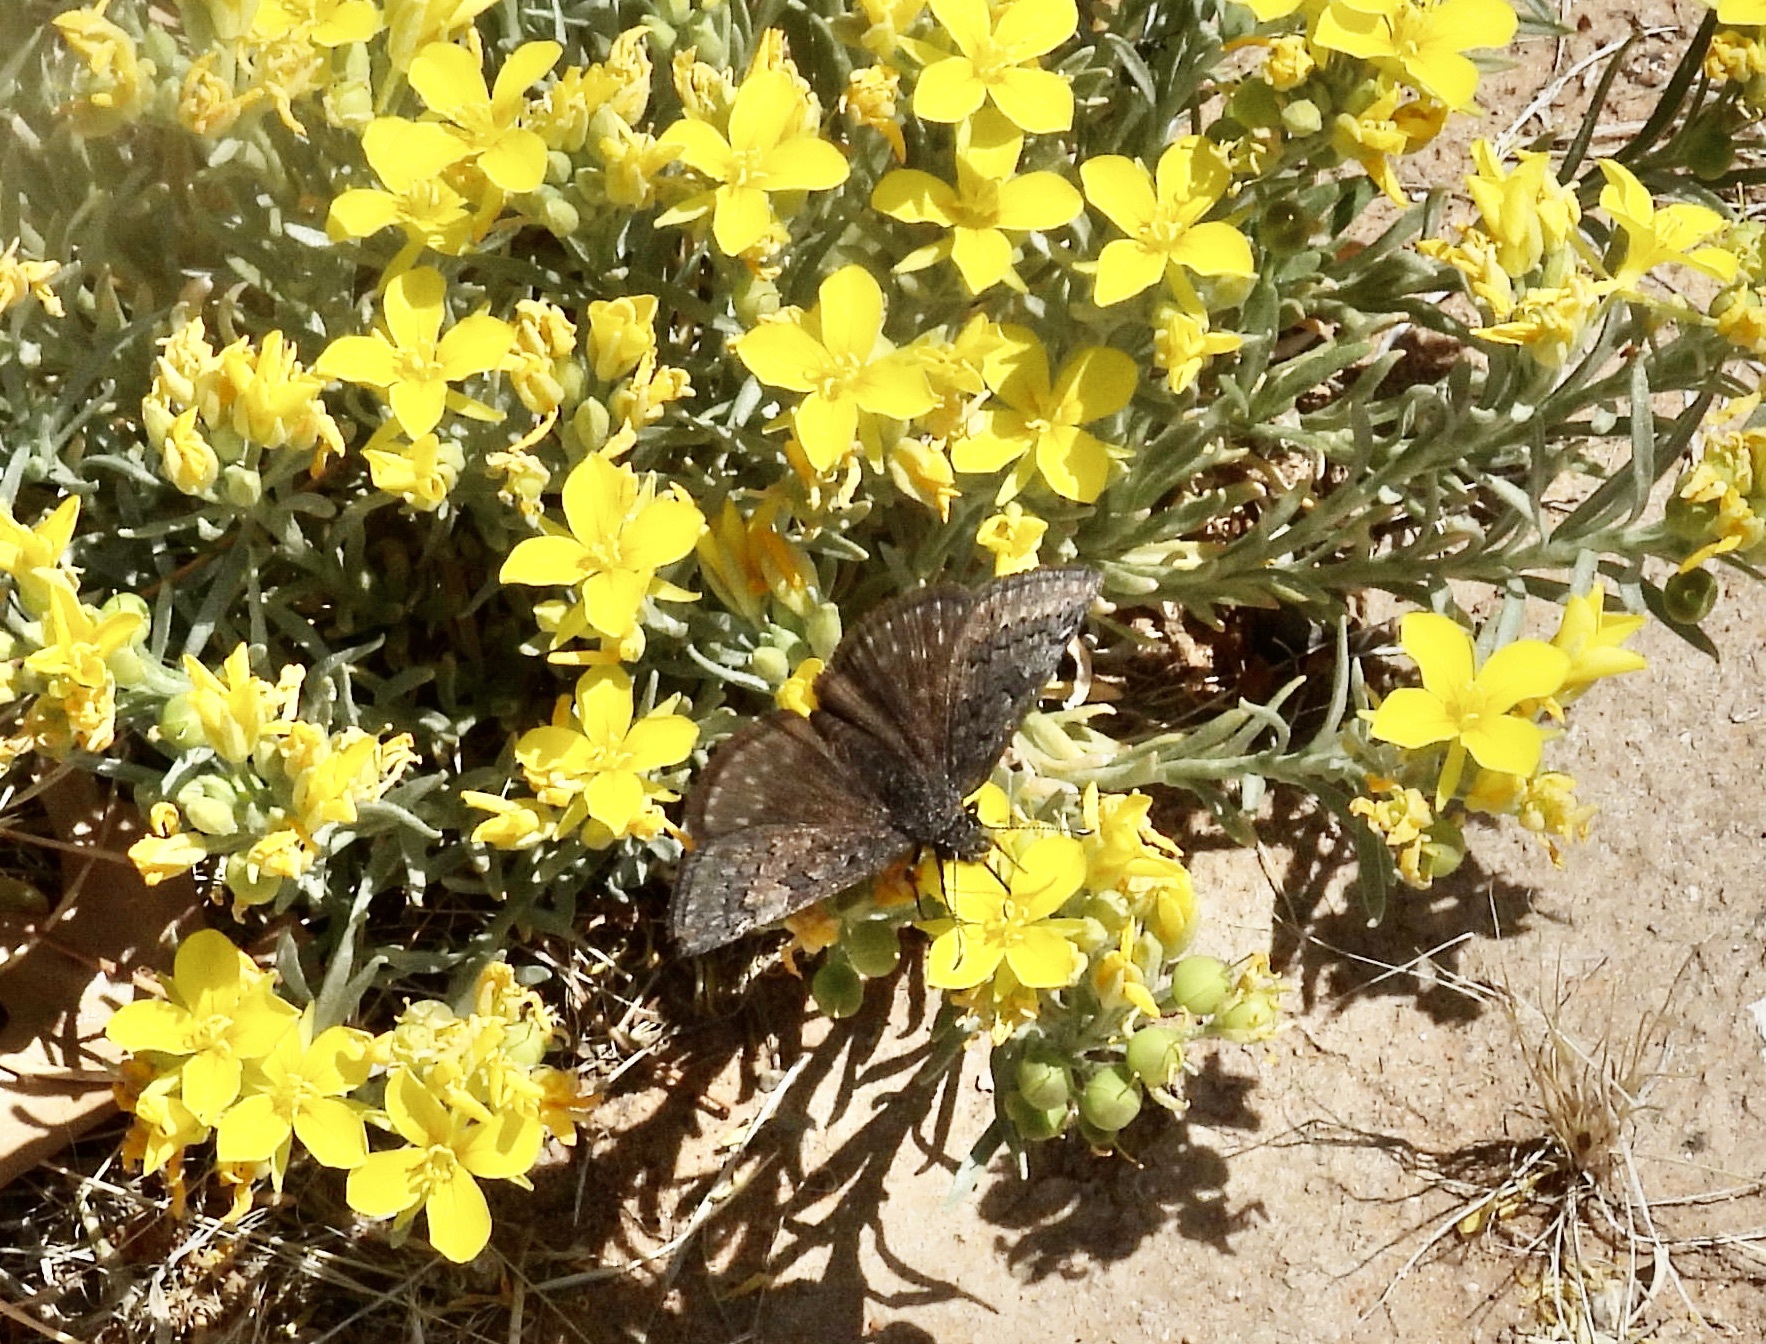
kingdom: Animalia
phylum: Arthropoda
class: Insecta
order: Lepidoptera
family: Hesperiidae
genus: Erynnis
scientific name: Erynnis brizo
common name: Sleepy duskywing
